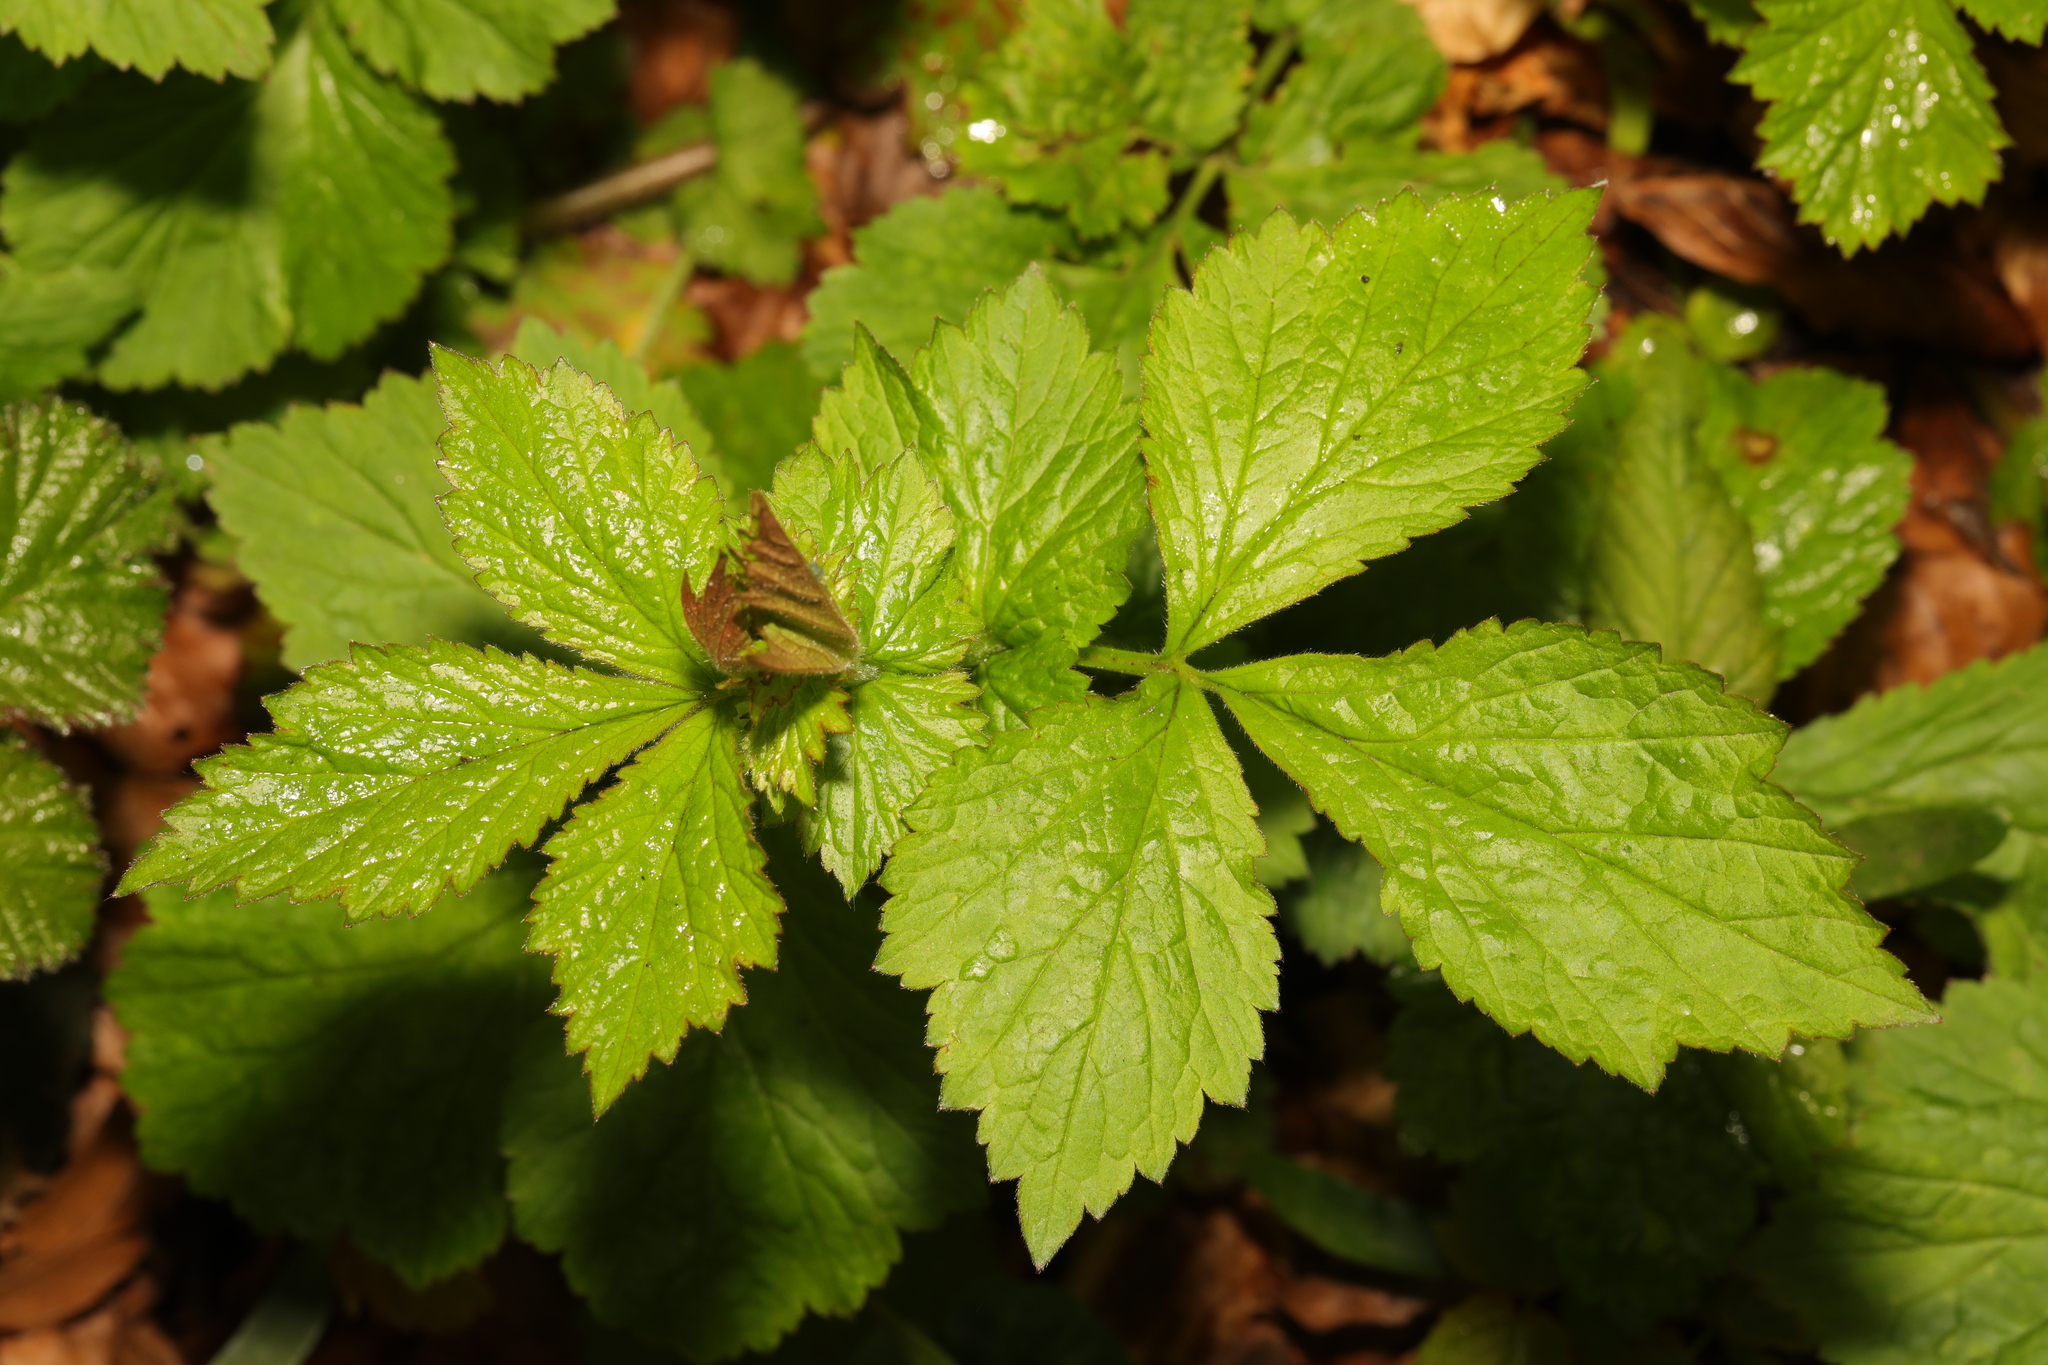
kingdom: Plantae
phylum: Tracheophyta
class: Magnoliopsida
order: Rosales
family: Rosaceae
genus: Geum
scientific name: Geum urbanum
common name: Wood avens
